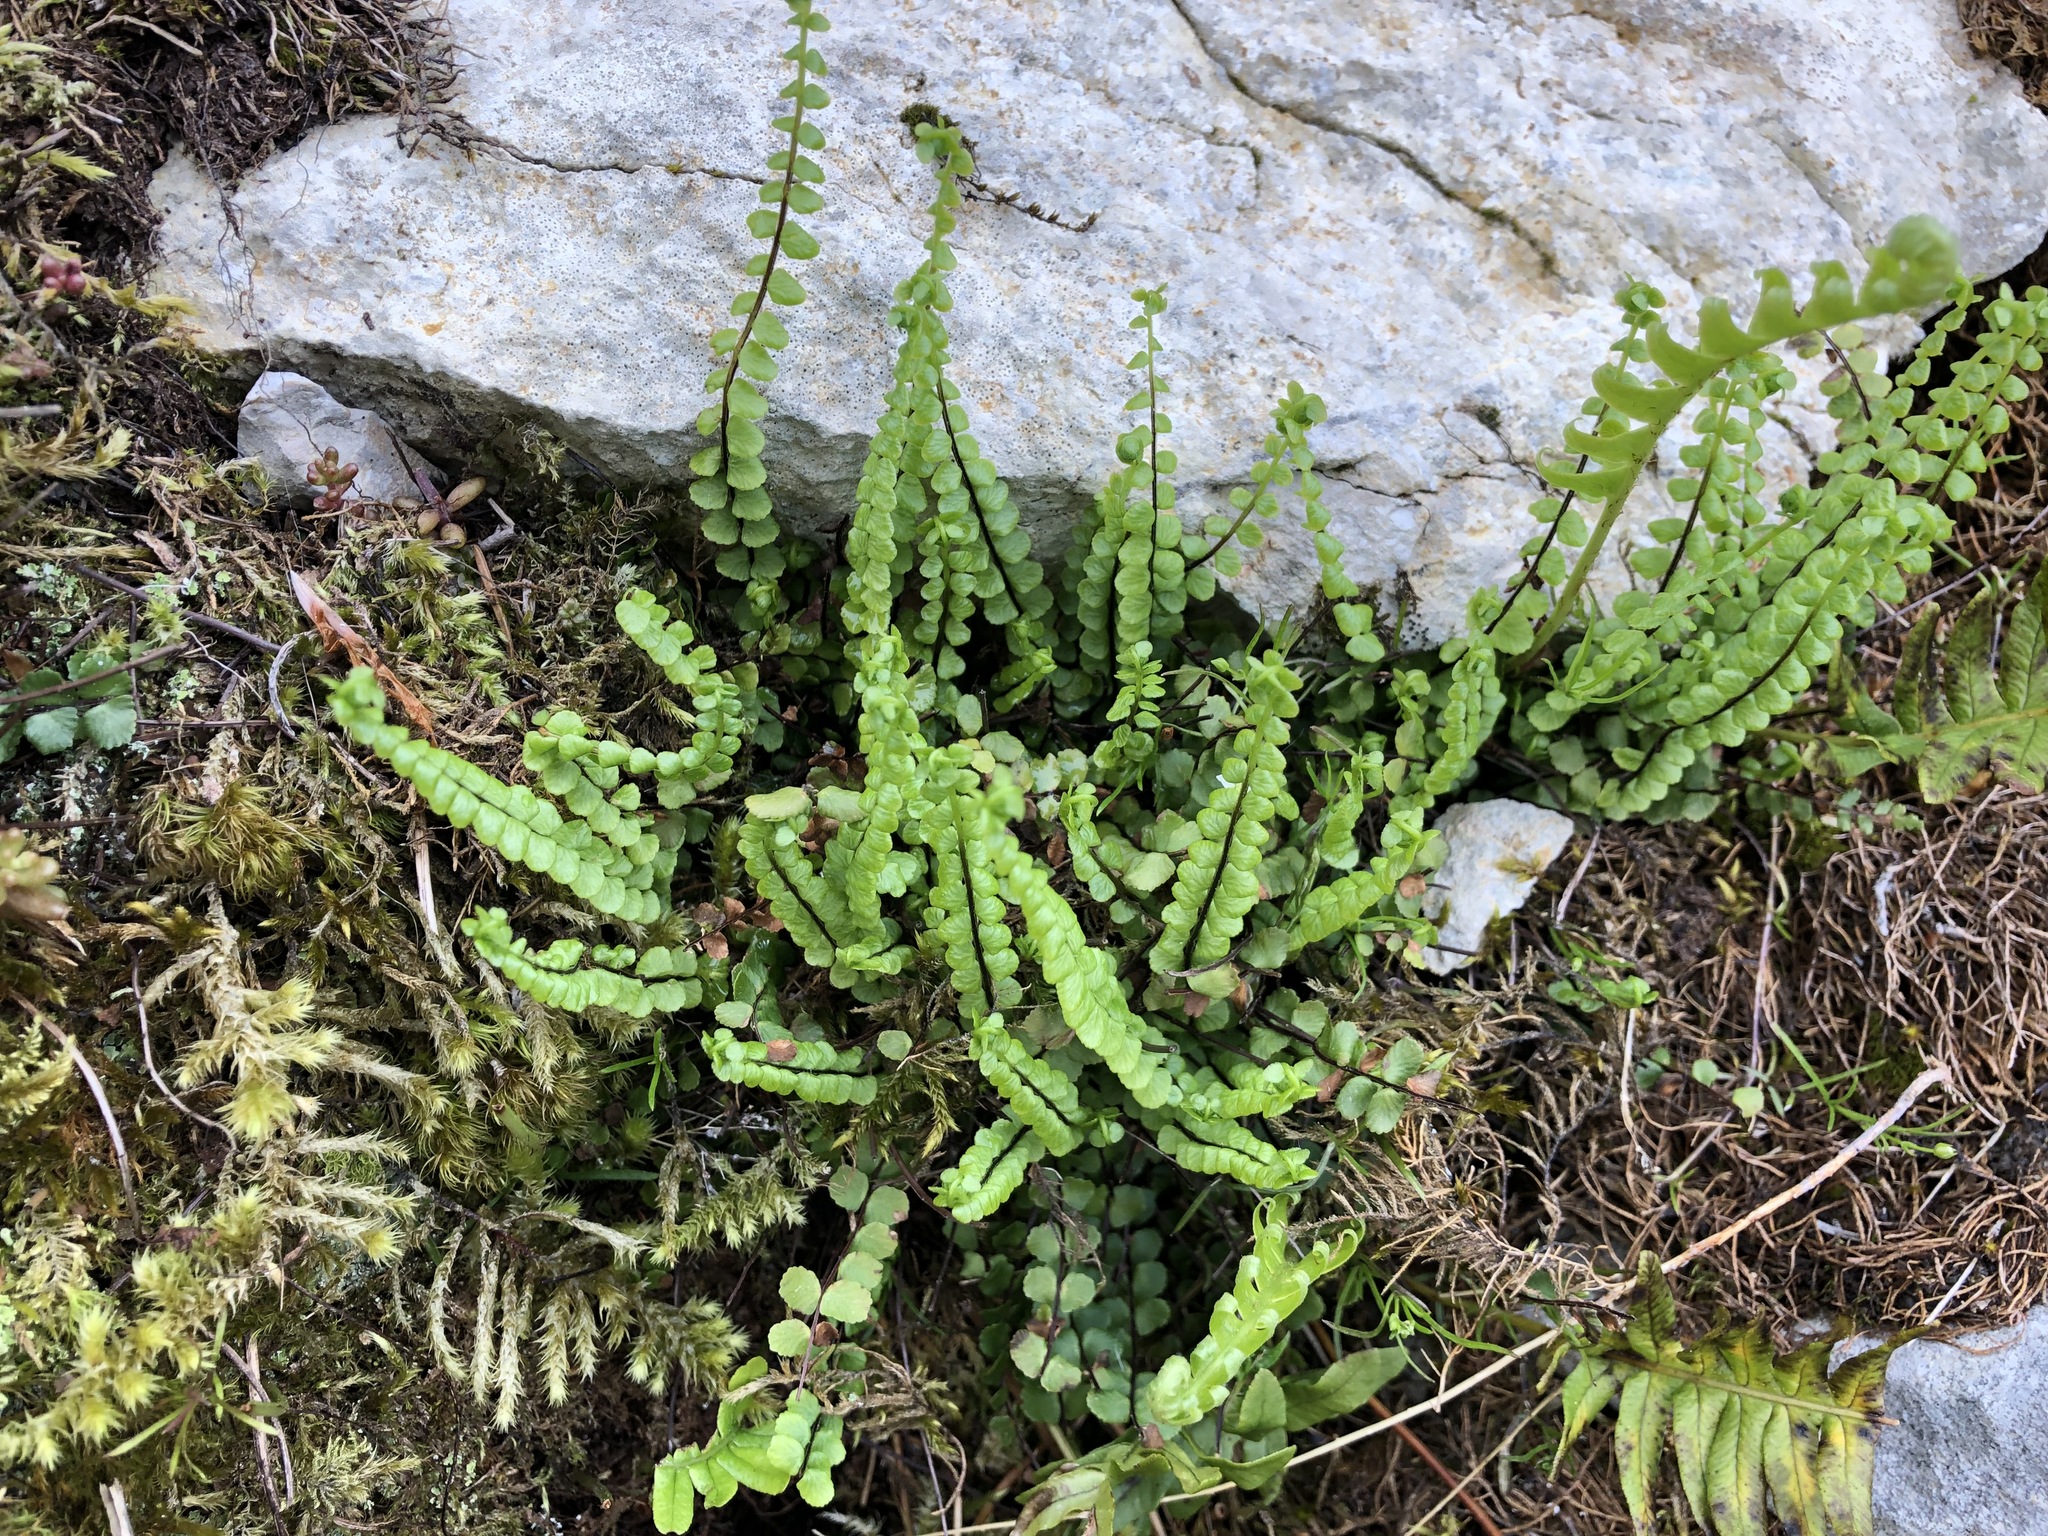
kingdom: Plantae
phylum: Tracheophyta
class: Polypodiopsida
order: Polypodiales
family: Aspleniaceae
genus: Asplenium
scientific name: Asplenium trichomanes
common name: Maidenhair spleenwort
